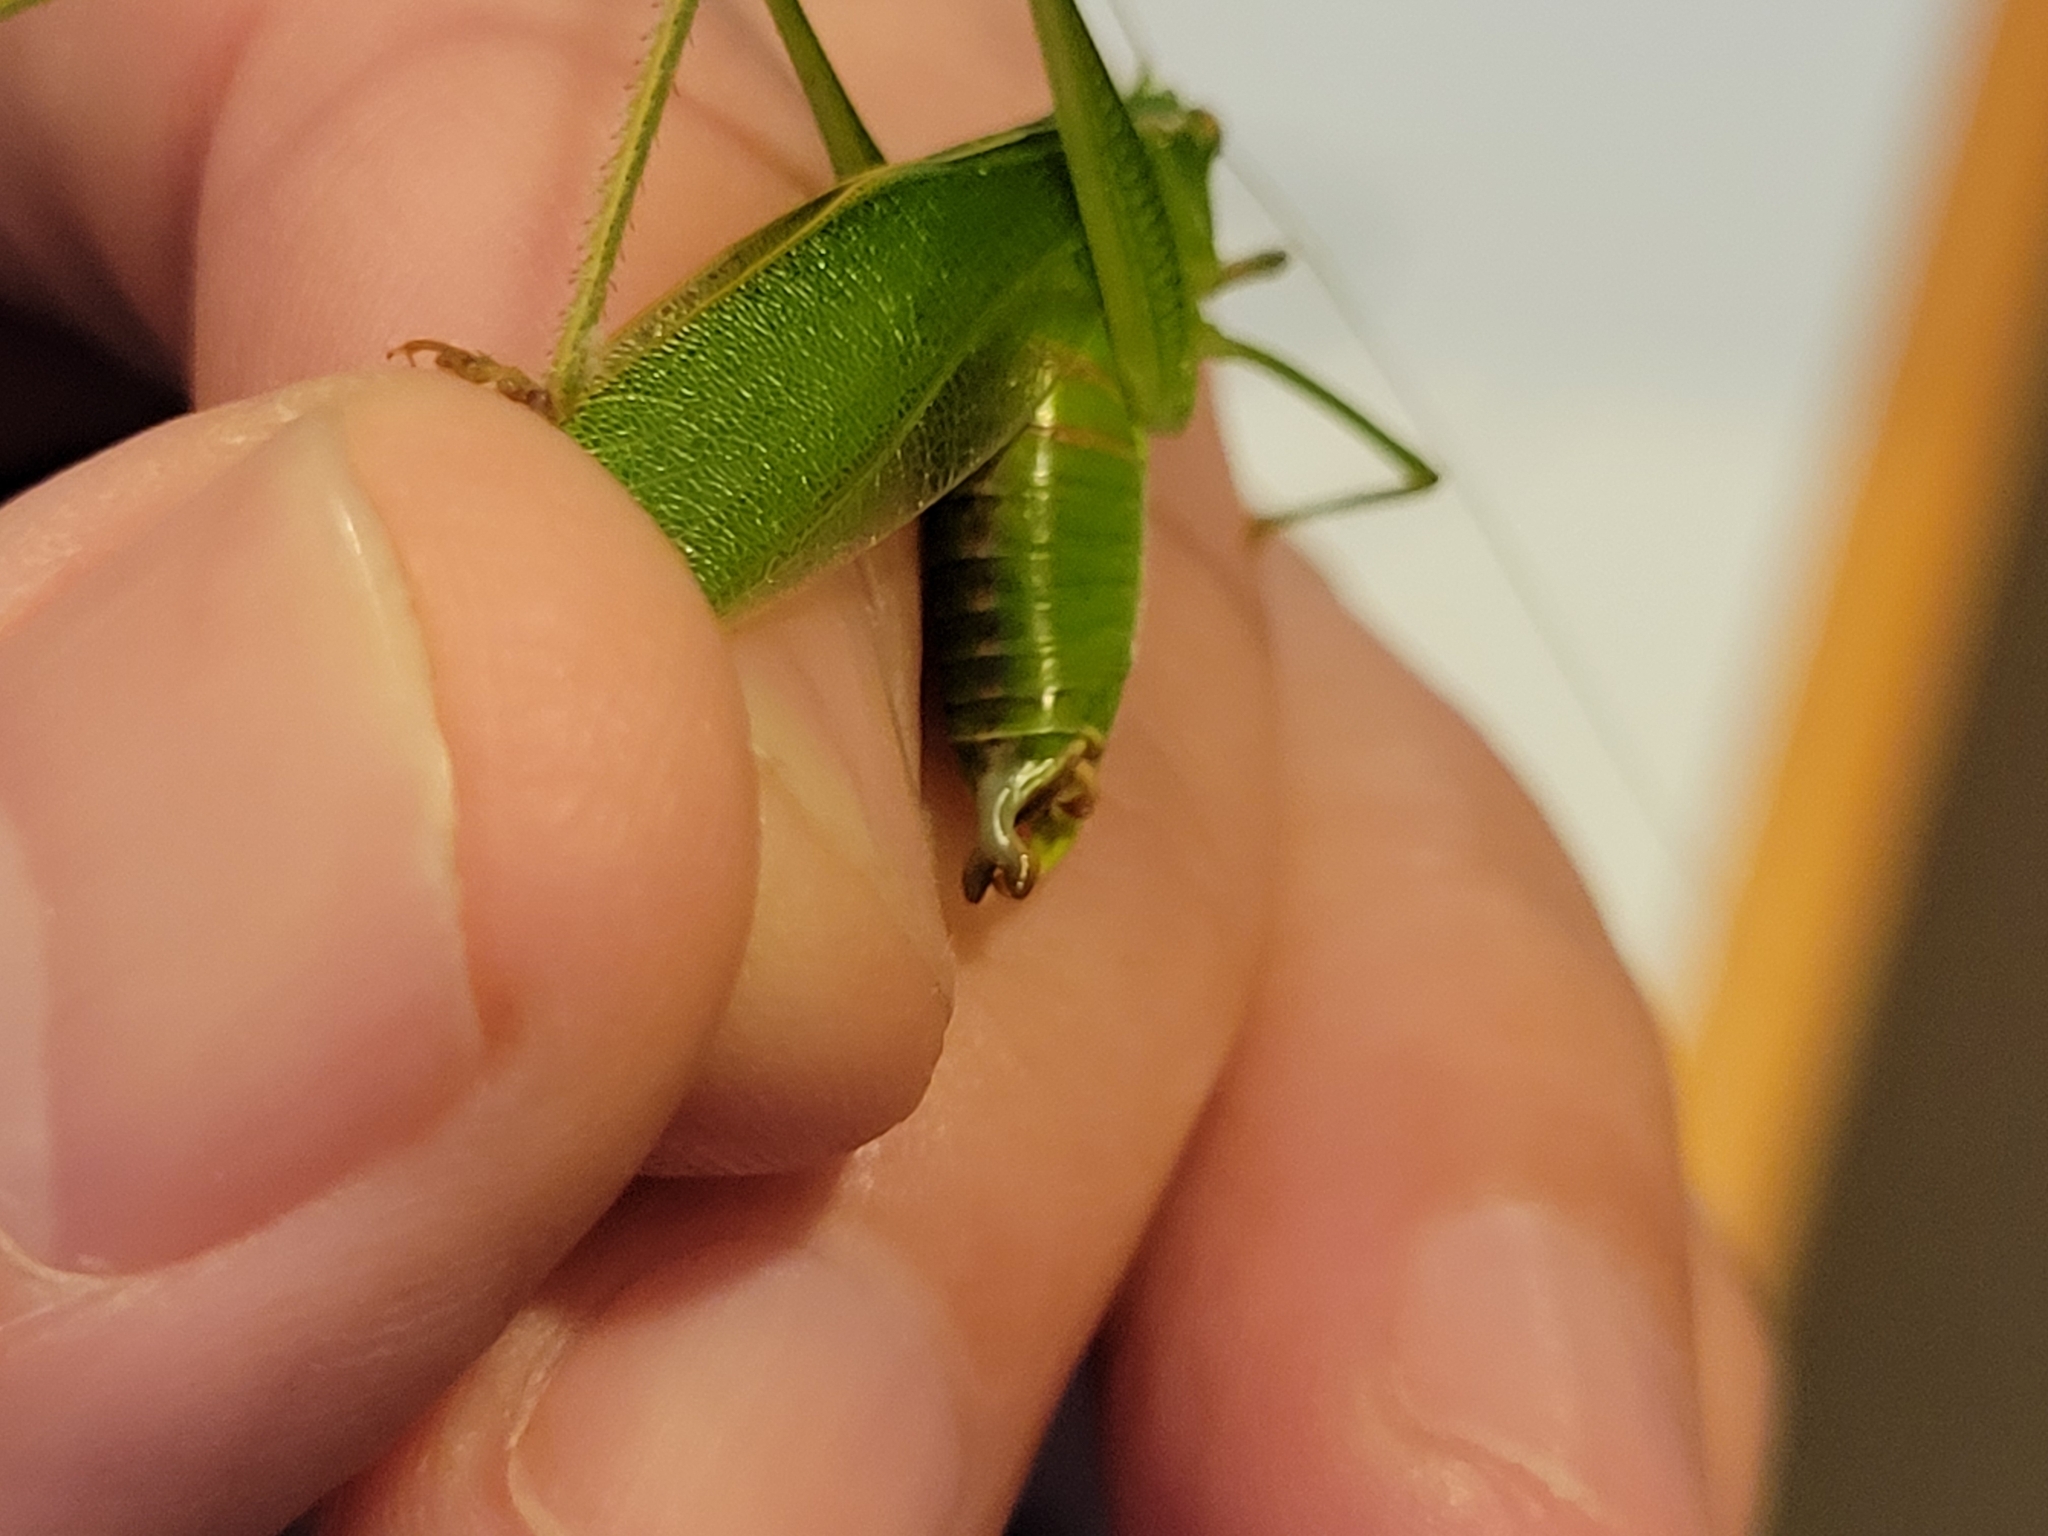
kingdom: Animalia
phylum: Arthropoda
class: Insecta
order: Orthoptera
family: Tettigoniidae
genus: Scudderia
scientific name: Scudderia furcata
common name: Fork-tailed bush katydid
